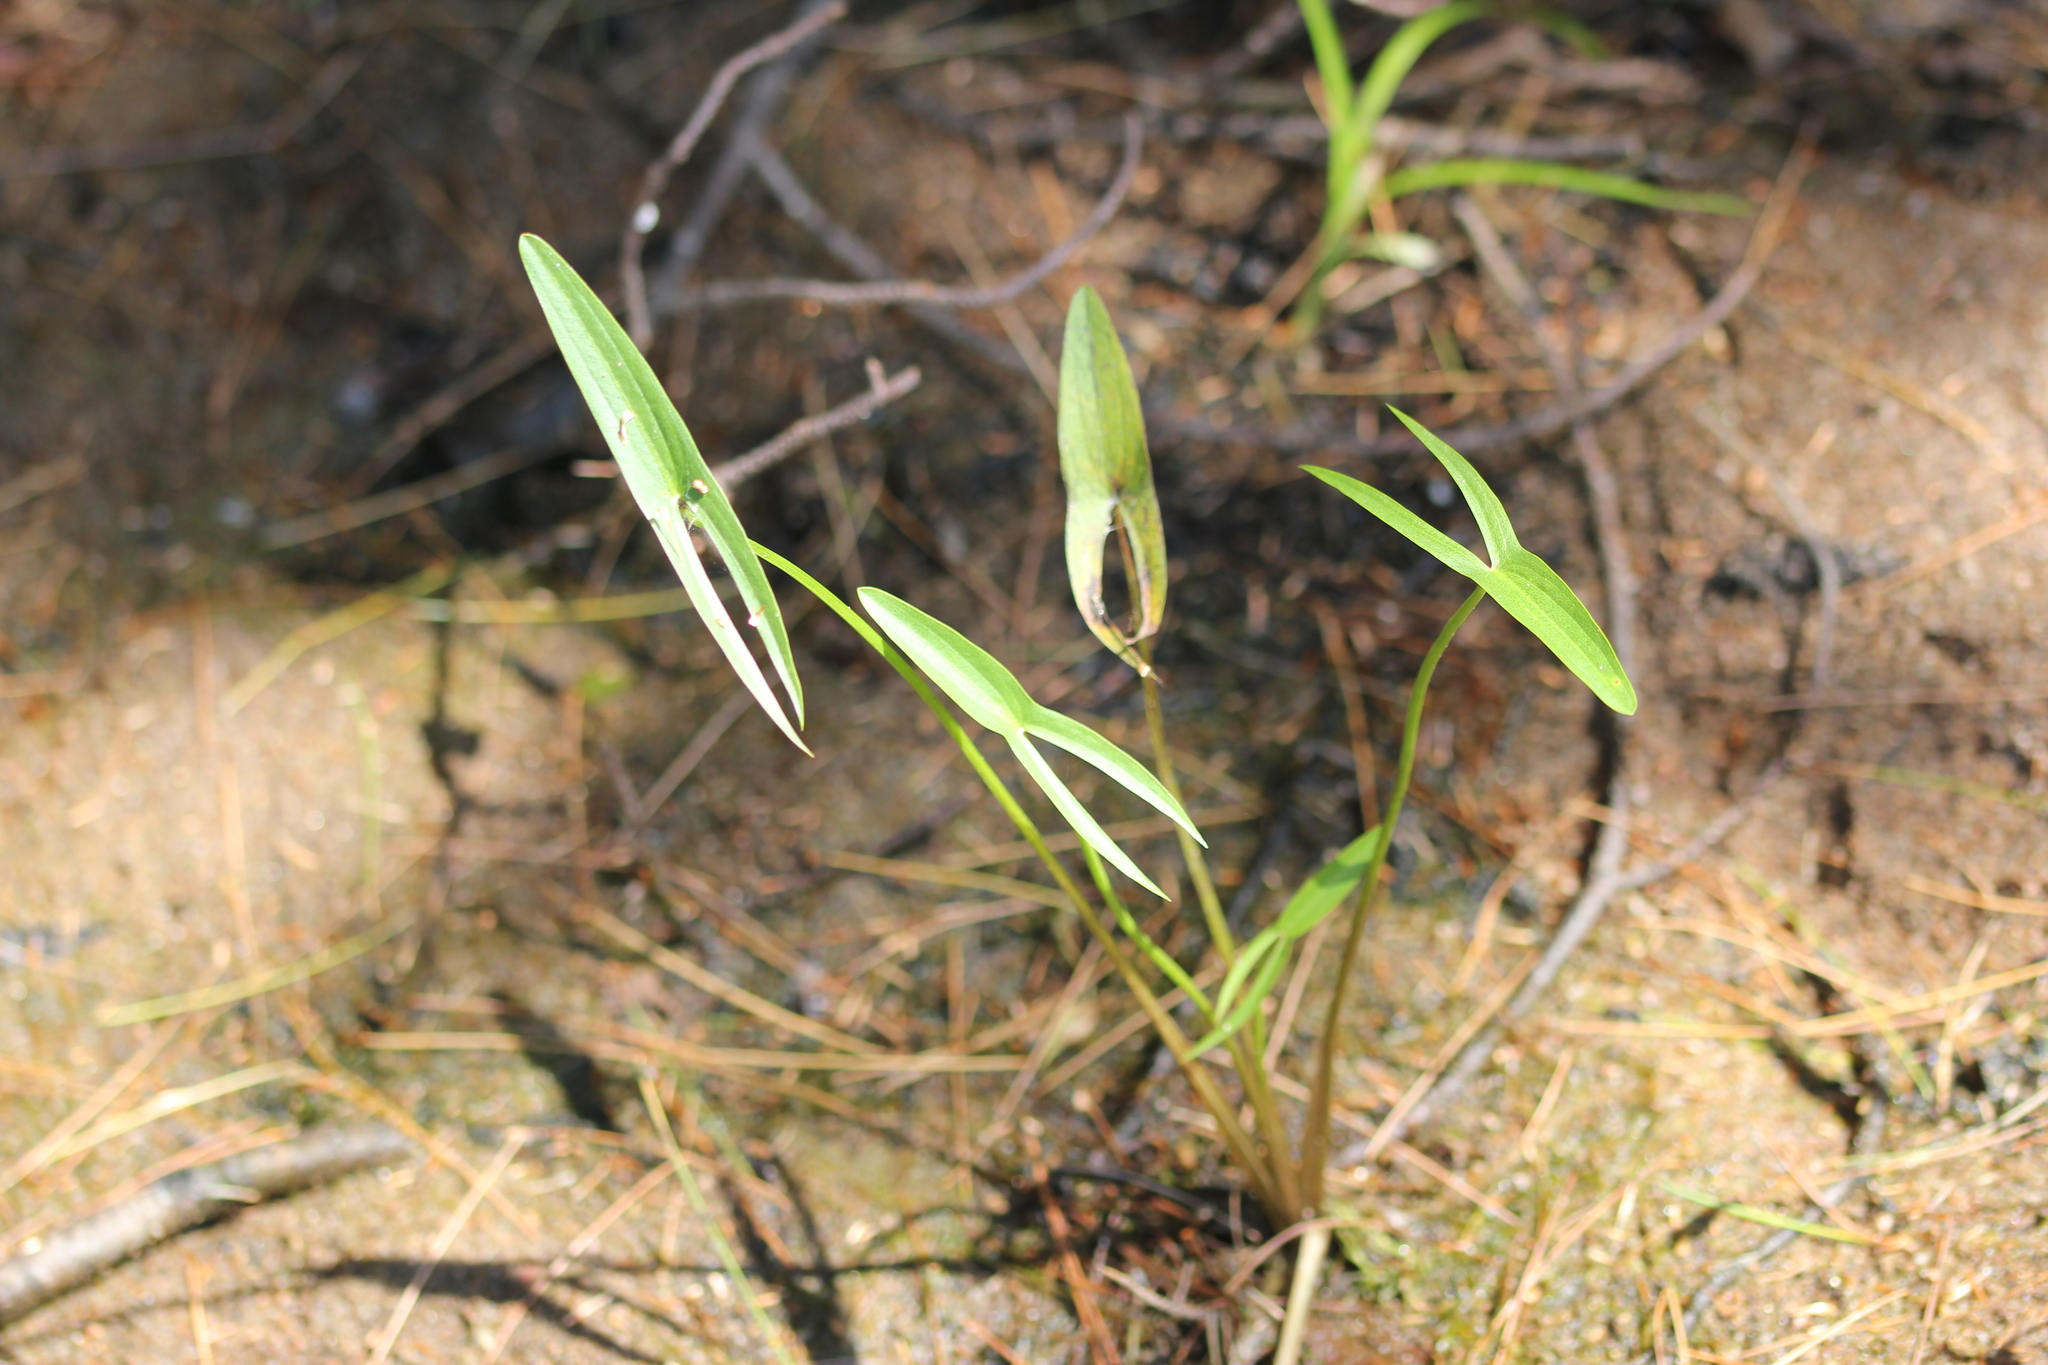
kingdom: Plantae
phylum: Tracheophyta
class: Liliopsida
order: Alismatales
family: Alismataceae
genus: Sagittaria
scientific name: Sagittaria latifolia
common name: Duck-potato
